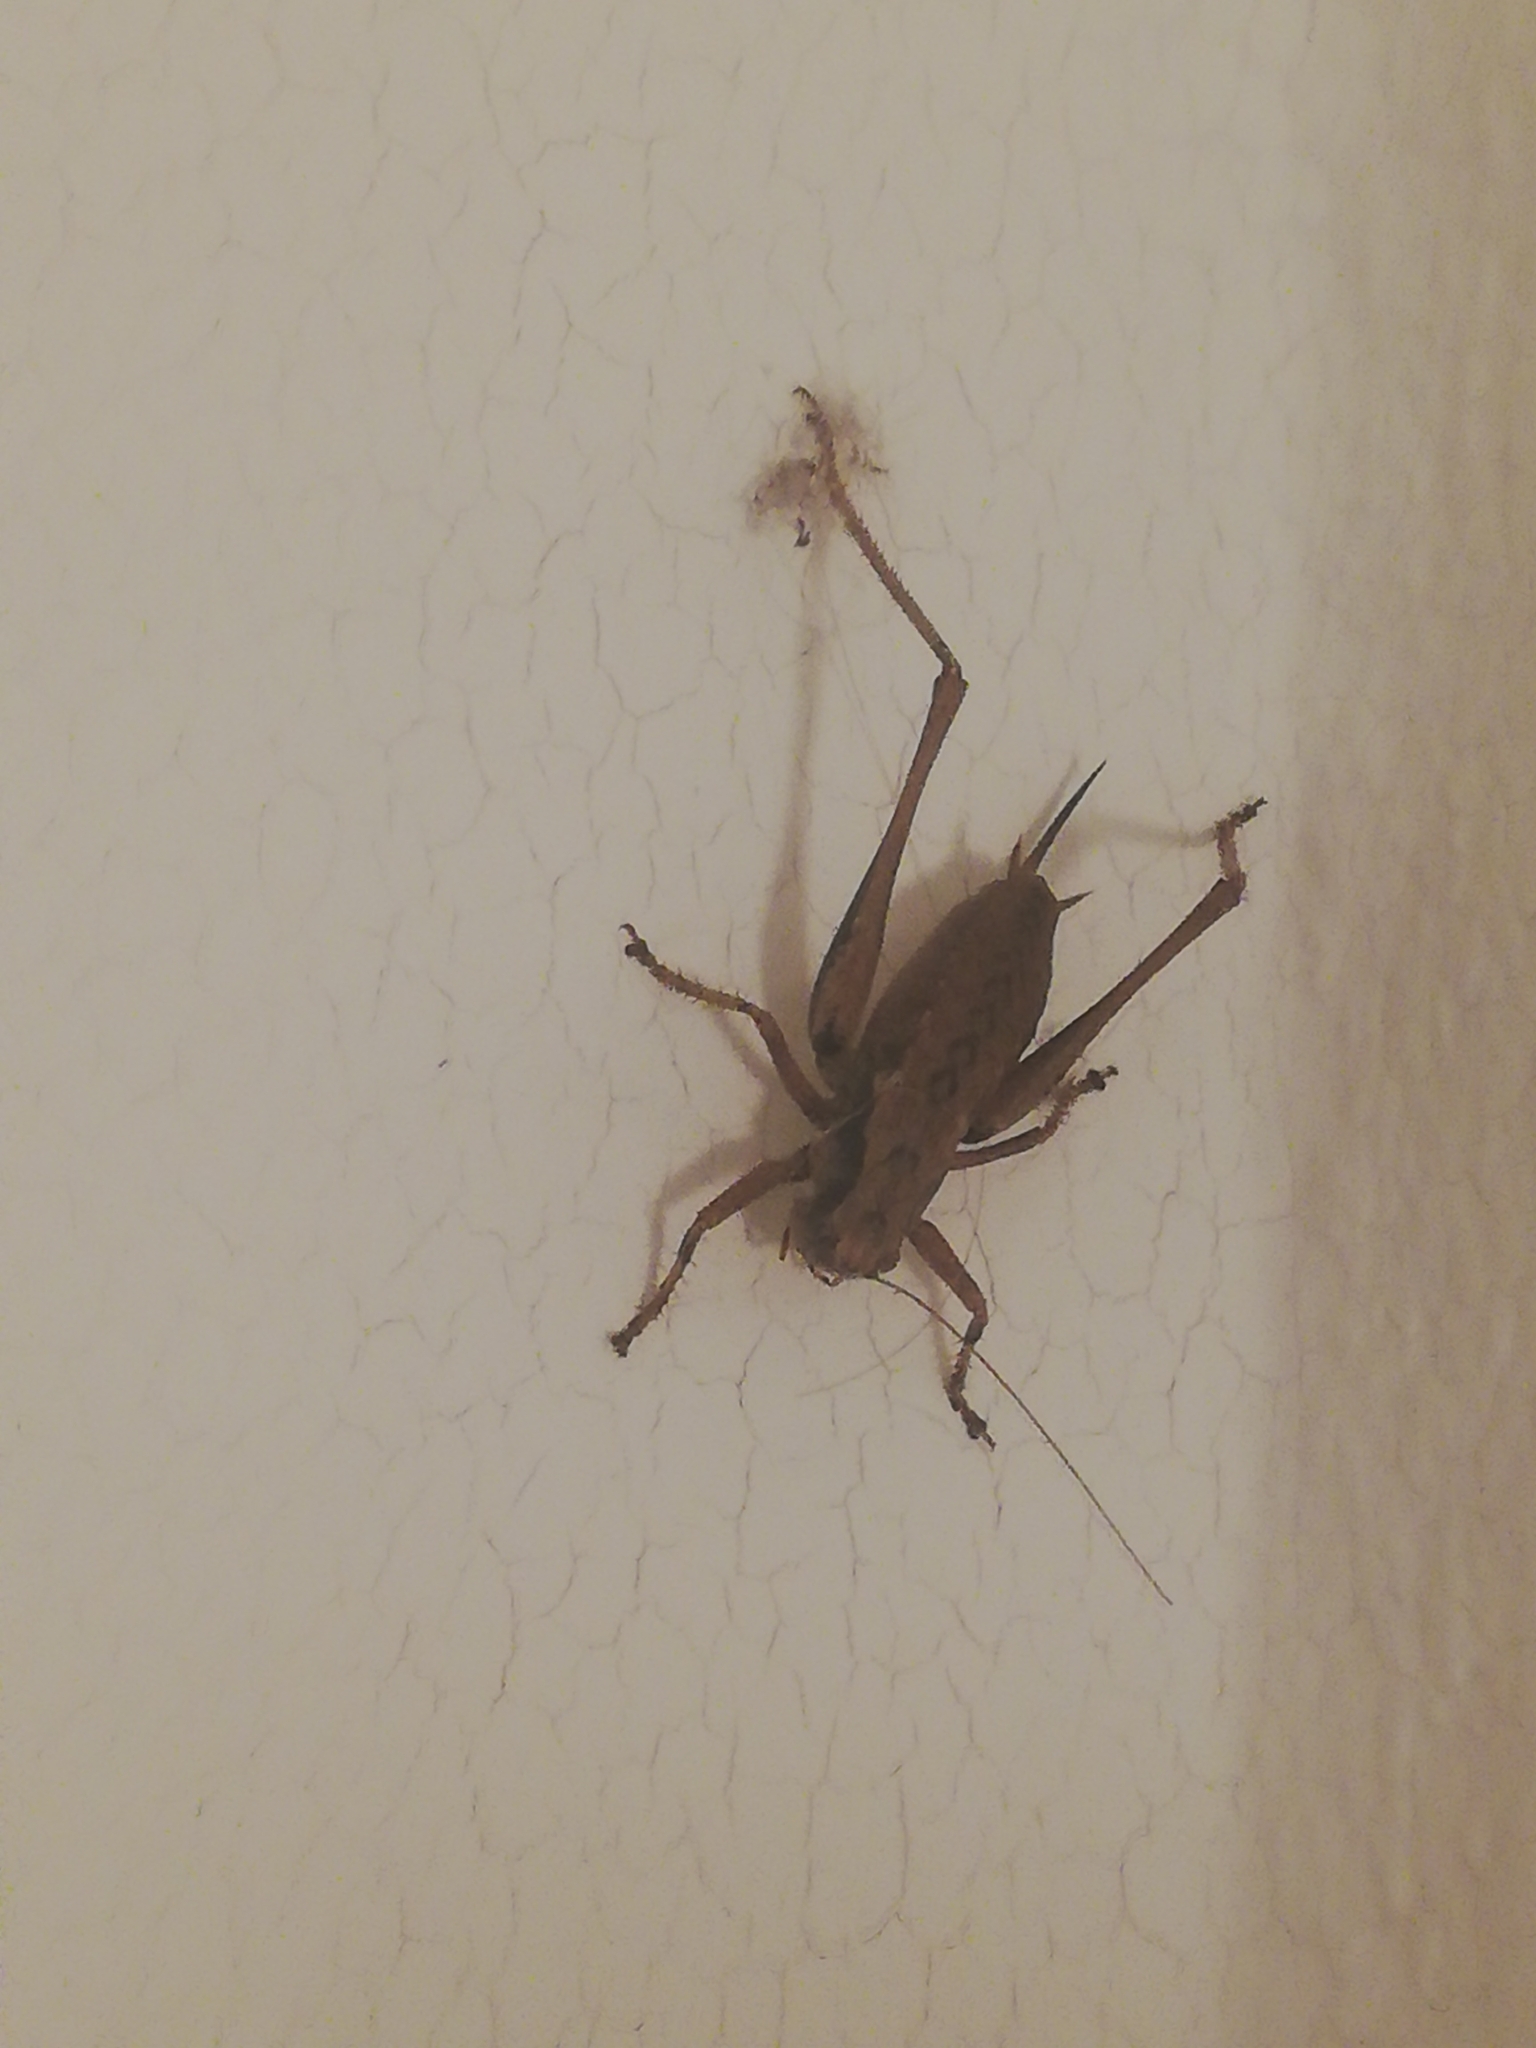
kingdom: Animalia
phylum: Arthropoda
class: Insecta
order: Orthoptera
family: Tettigoniidae
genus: Pholidoptera
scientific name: Pholidoptera griseoaptera
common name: Dark bush-cricket
